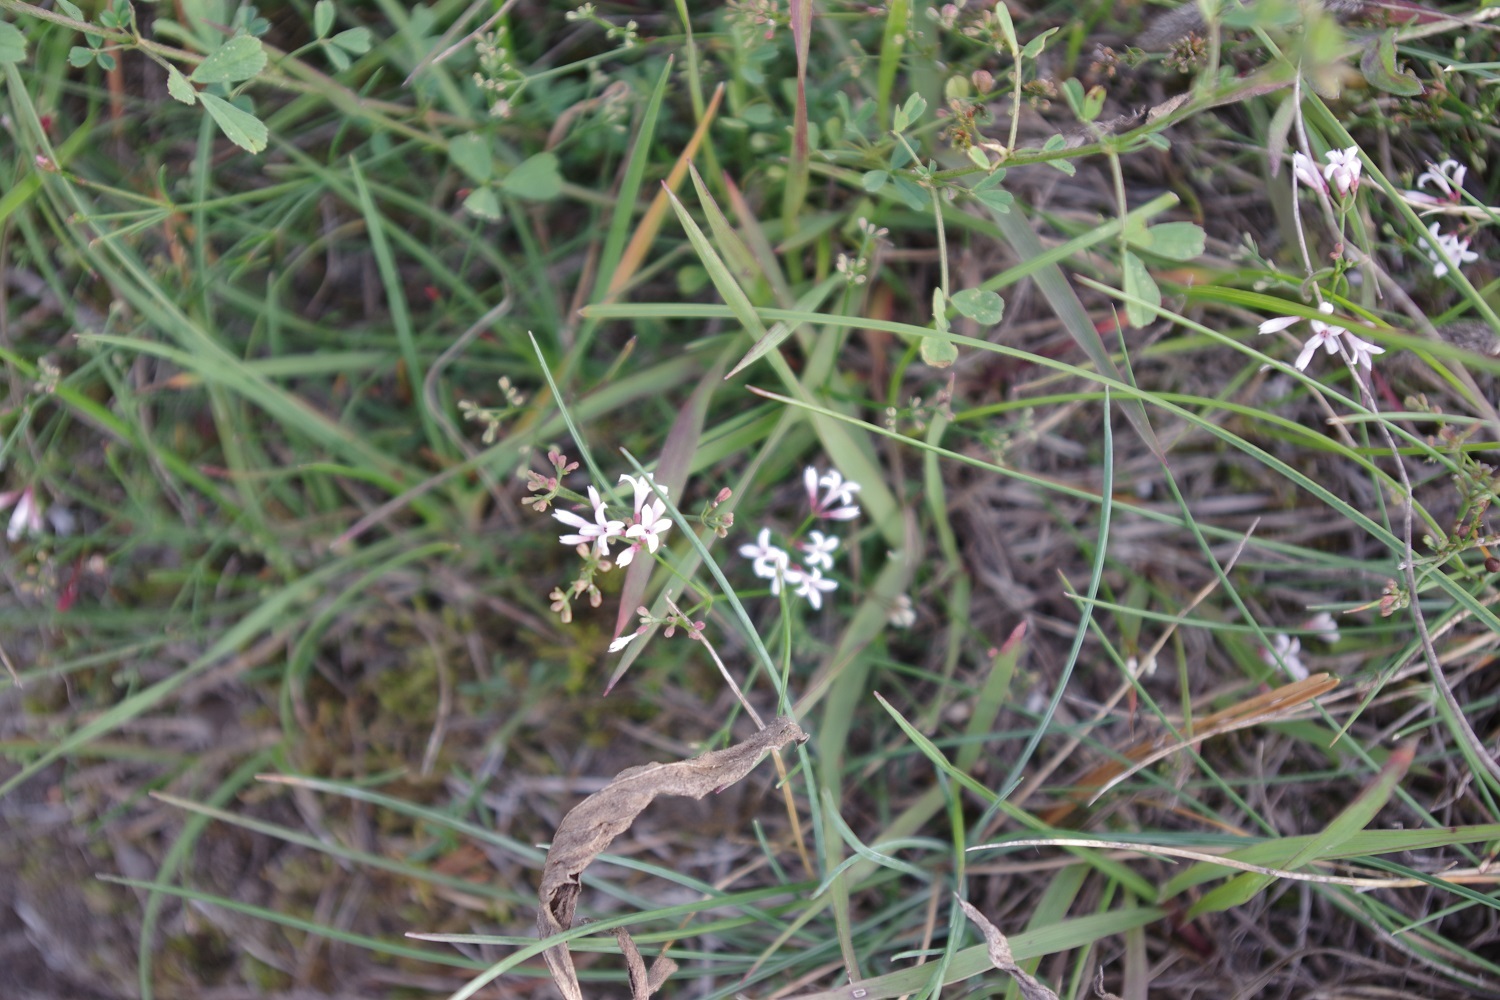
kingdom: Plantae
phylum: Tracheophyta
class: Magnoliopsida
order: Gentianales
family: Rubiaceae
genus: Cynanchica
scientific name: Cynanchica pyrenaica
